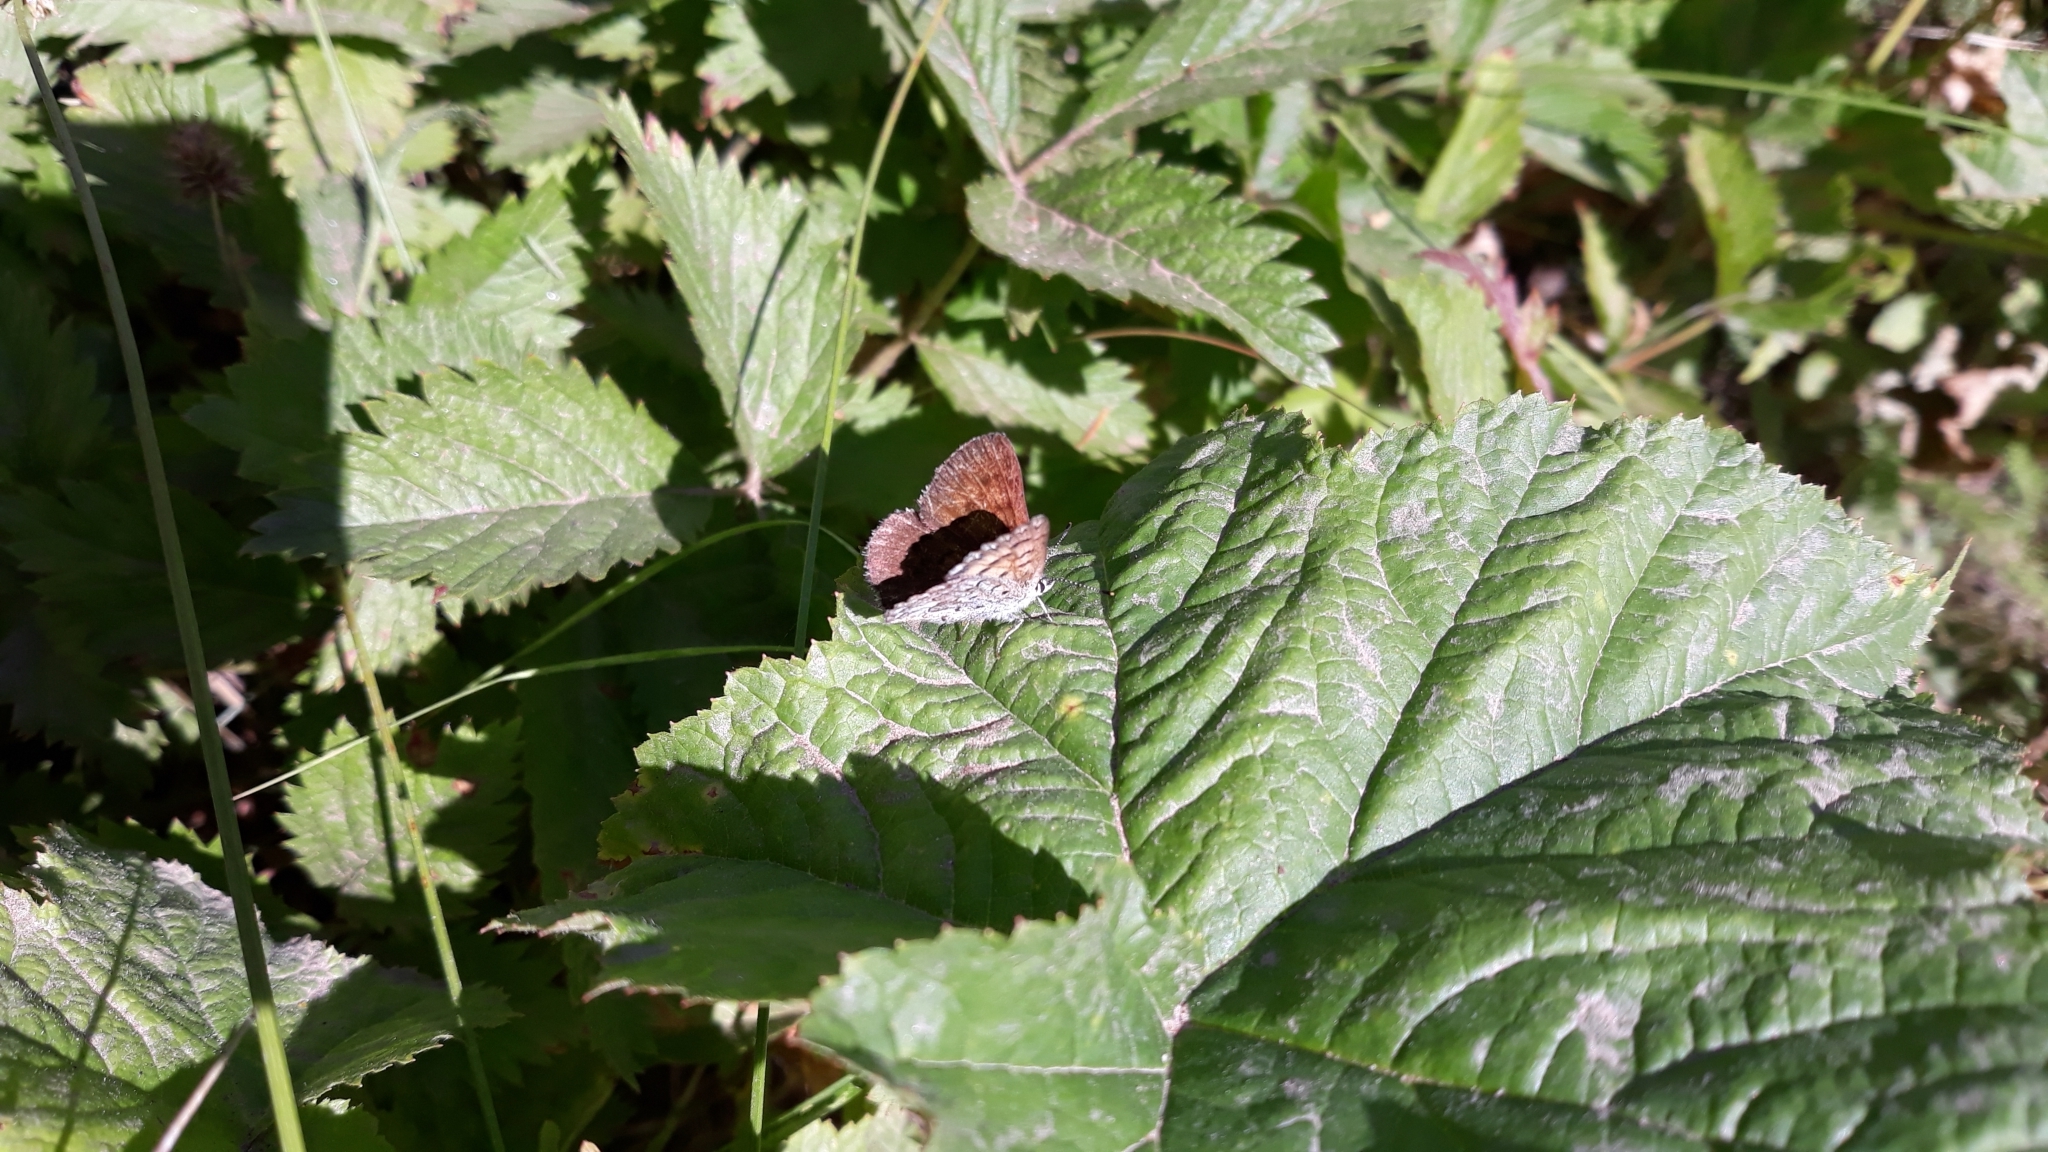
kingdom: Animalia
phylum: Arthropoda
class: Insecta
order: Lepidoptera
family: Lycaenidae
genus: Tharsalea
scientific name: Tharsalea mariposa
